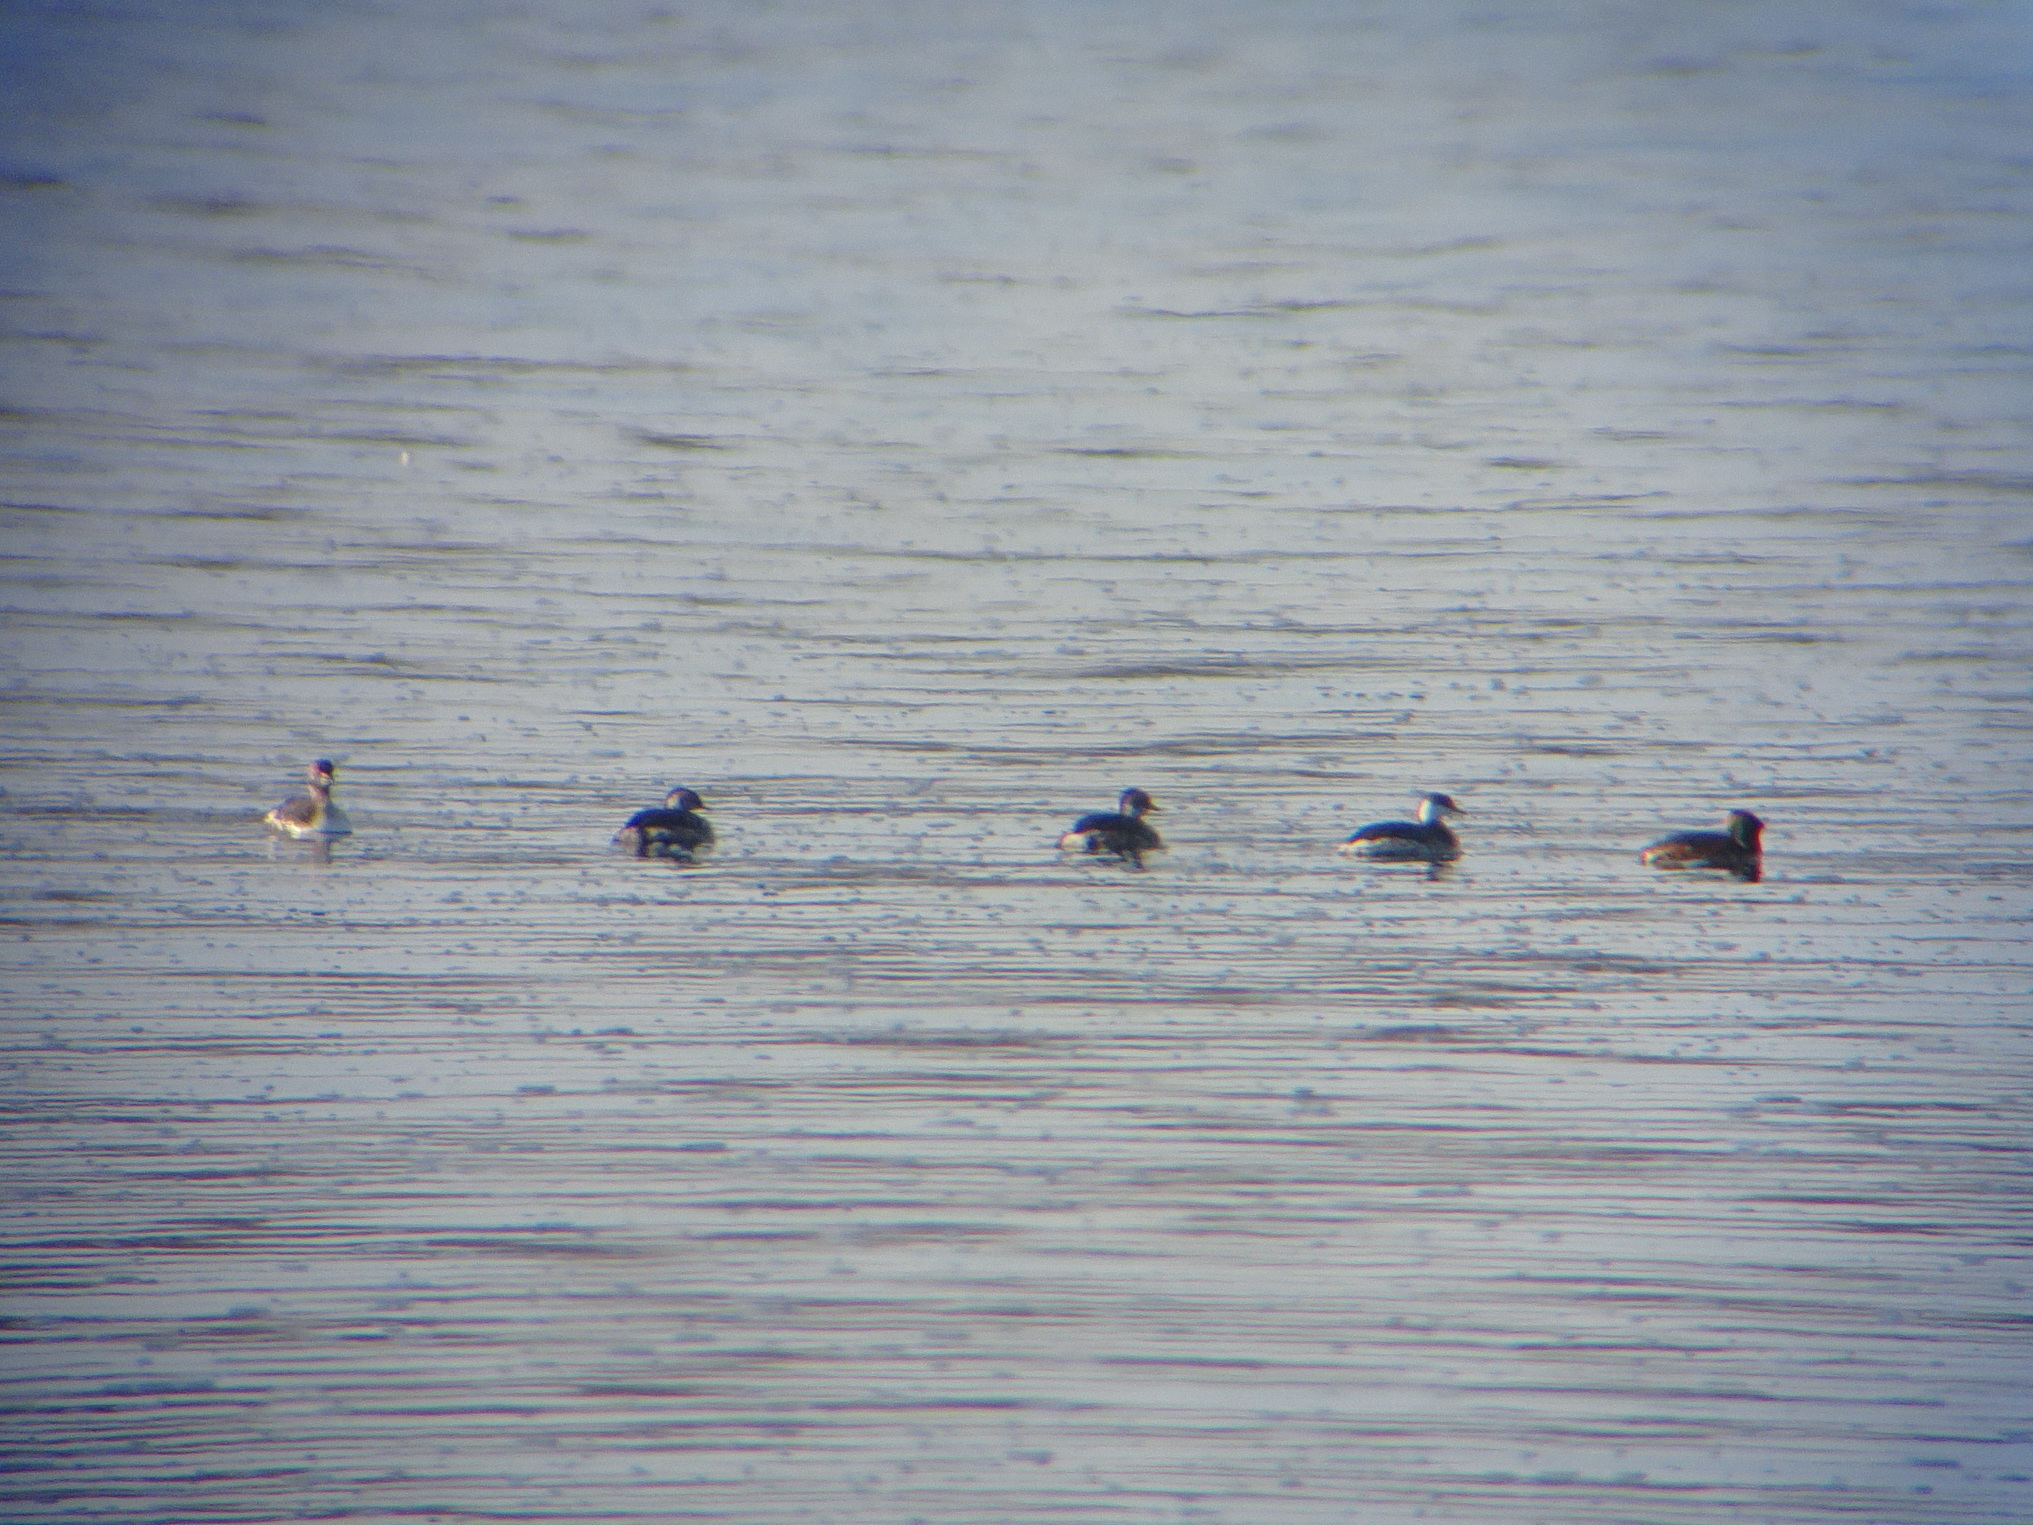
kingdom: Animalia
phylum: Chordata
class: Aves
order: Podicipediformes
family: Podicipedidae
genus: Podiceps
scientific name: Podiceps auritus
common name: Horned grebe
